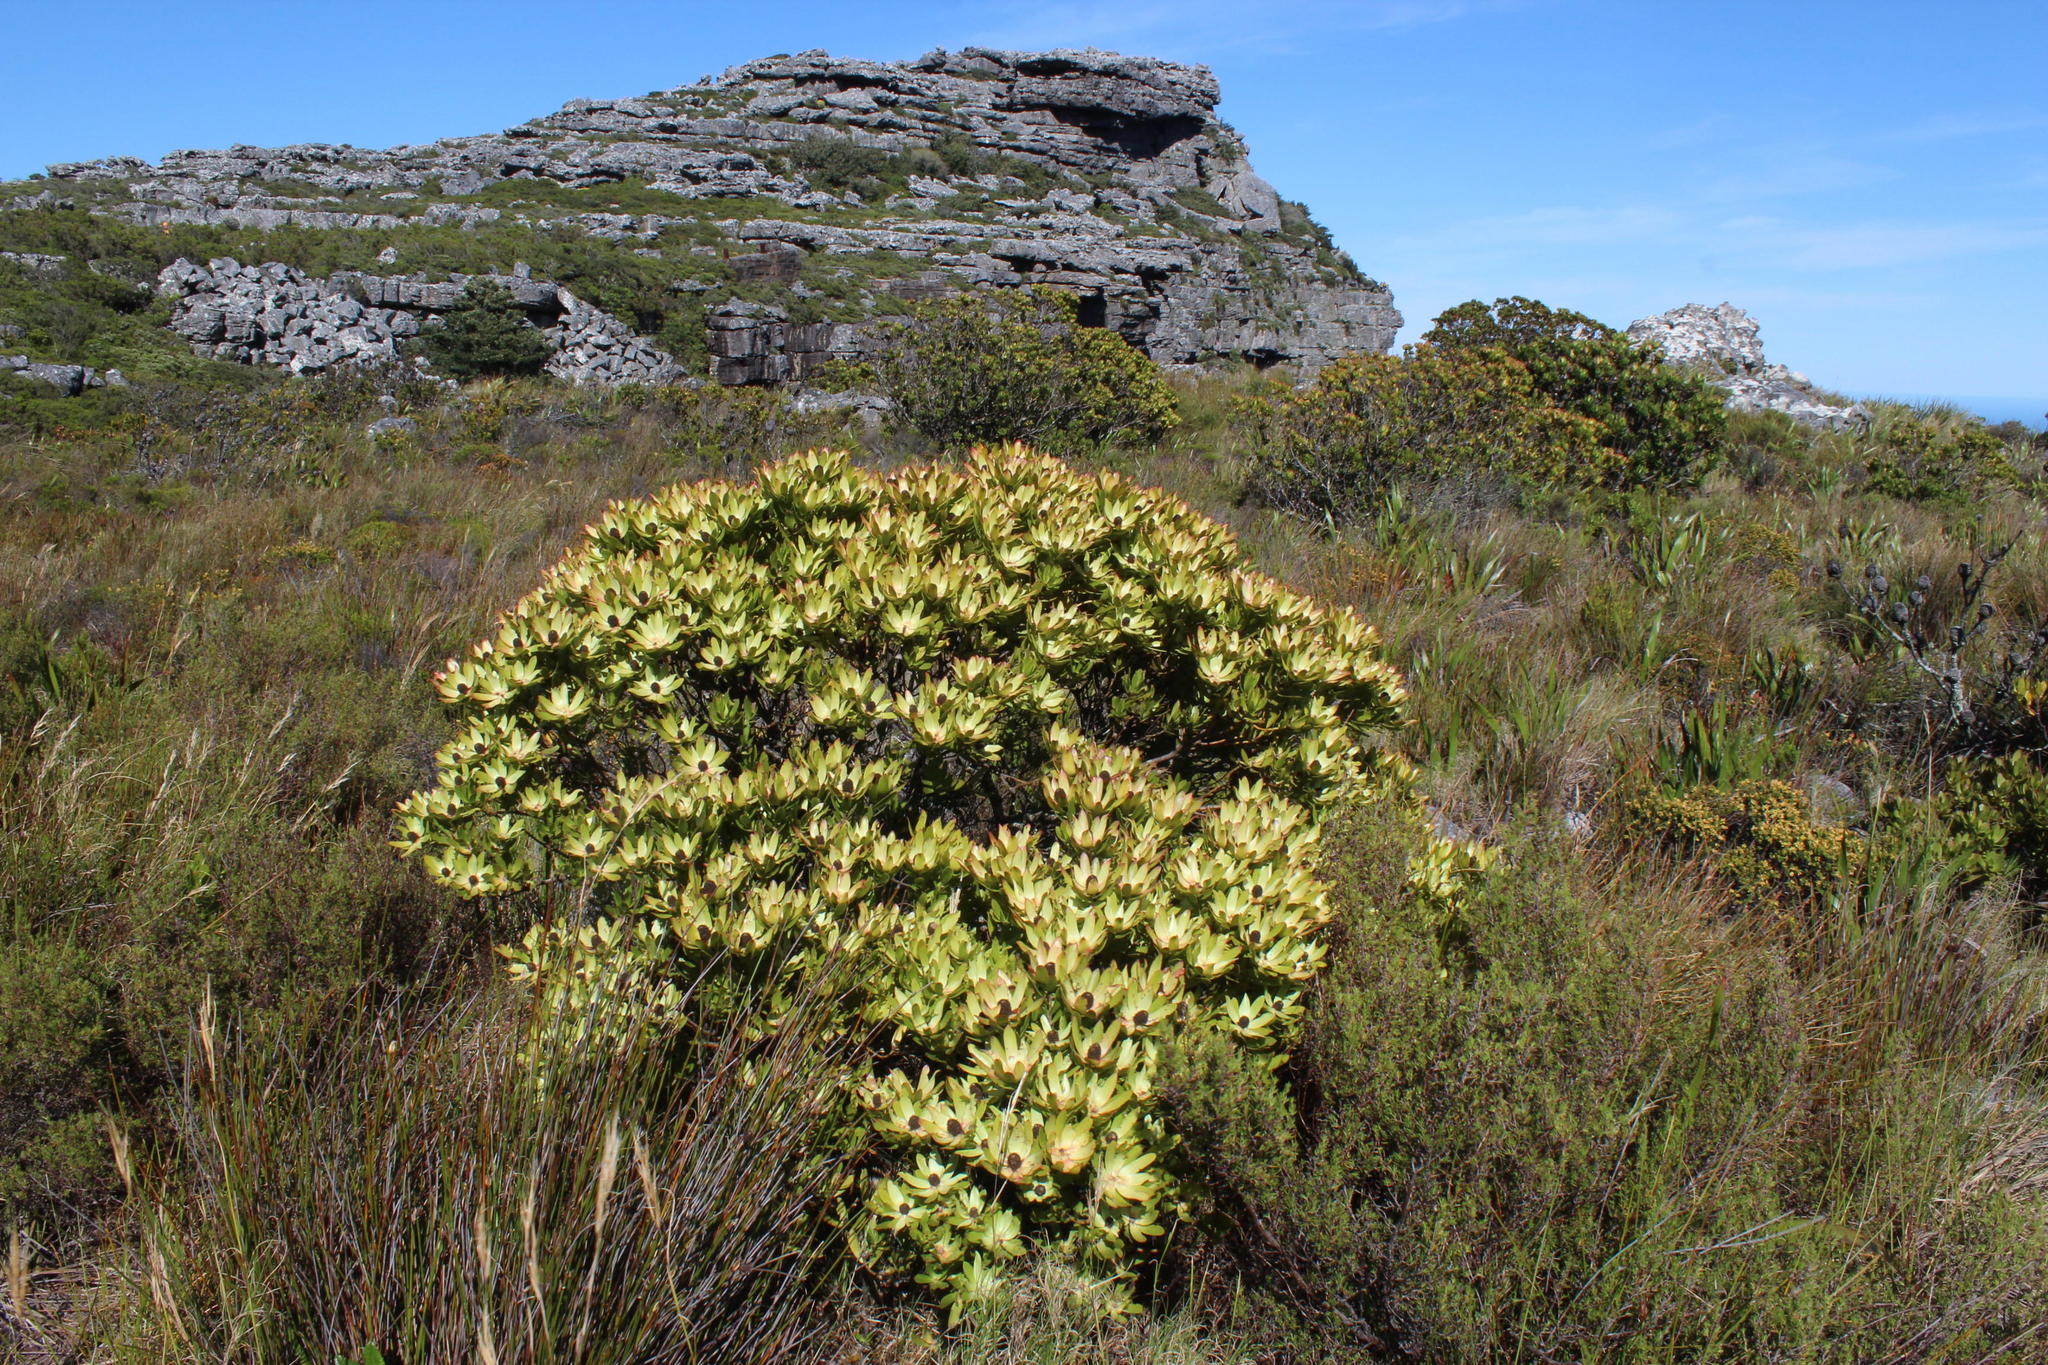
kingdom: Plantae
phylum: Tracheophyta
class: Magnoliopsida
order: Proteales
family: Proteaceae
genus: Leucadendron
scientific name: Leucadendron strobilinum
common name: Mountain rose
